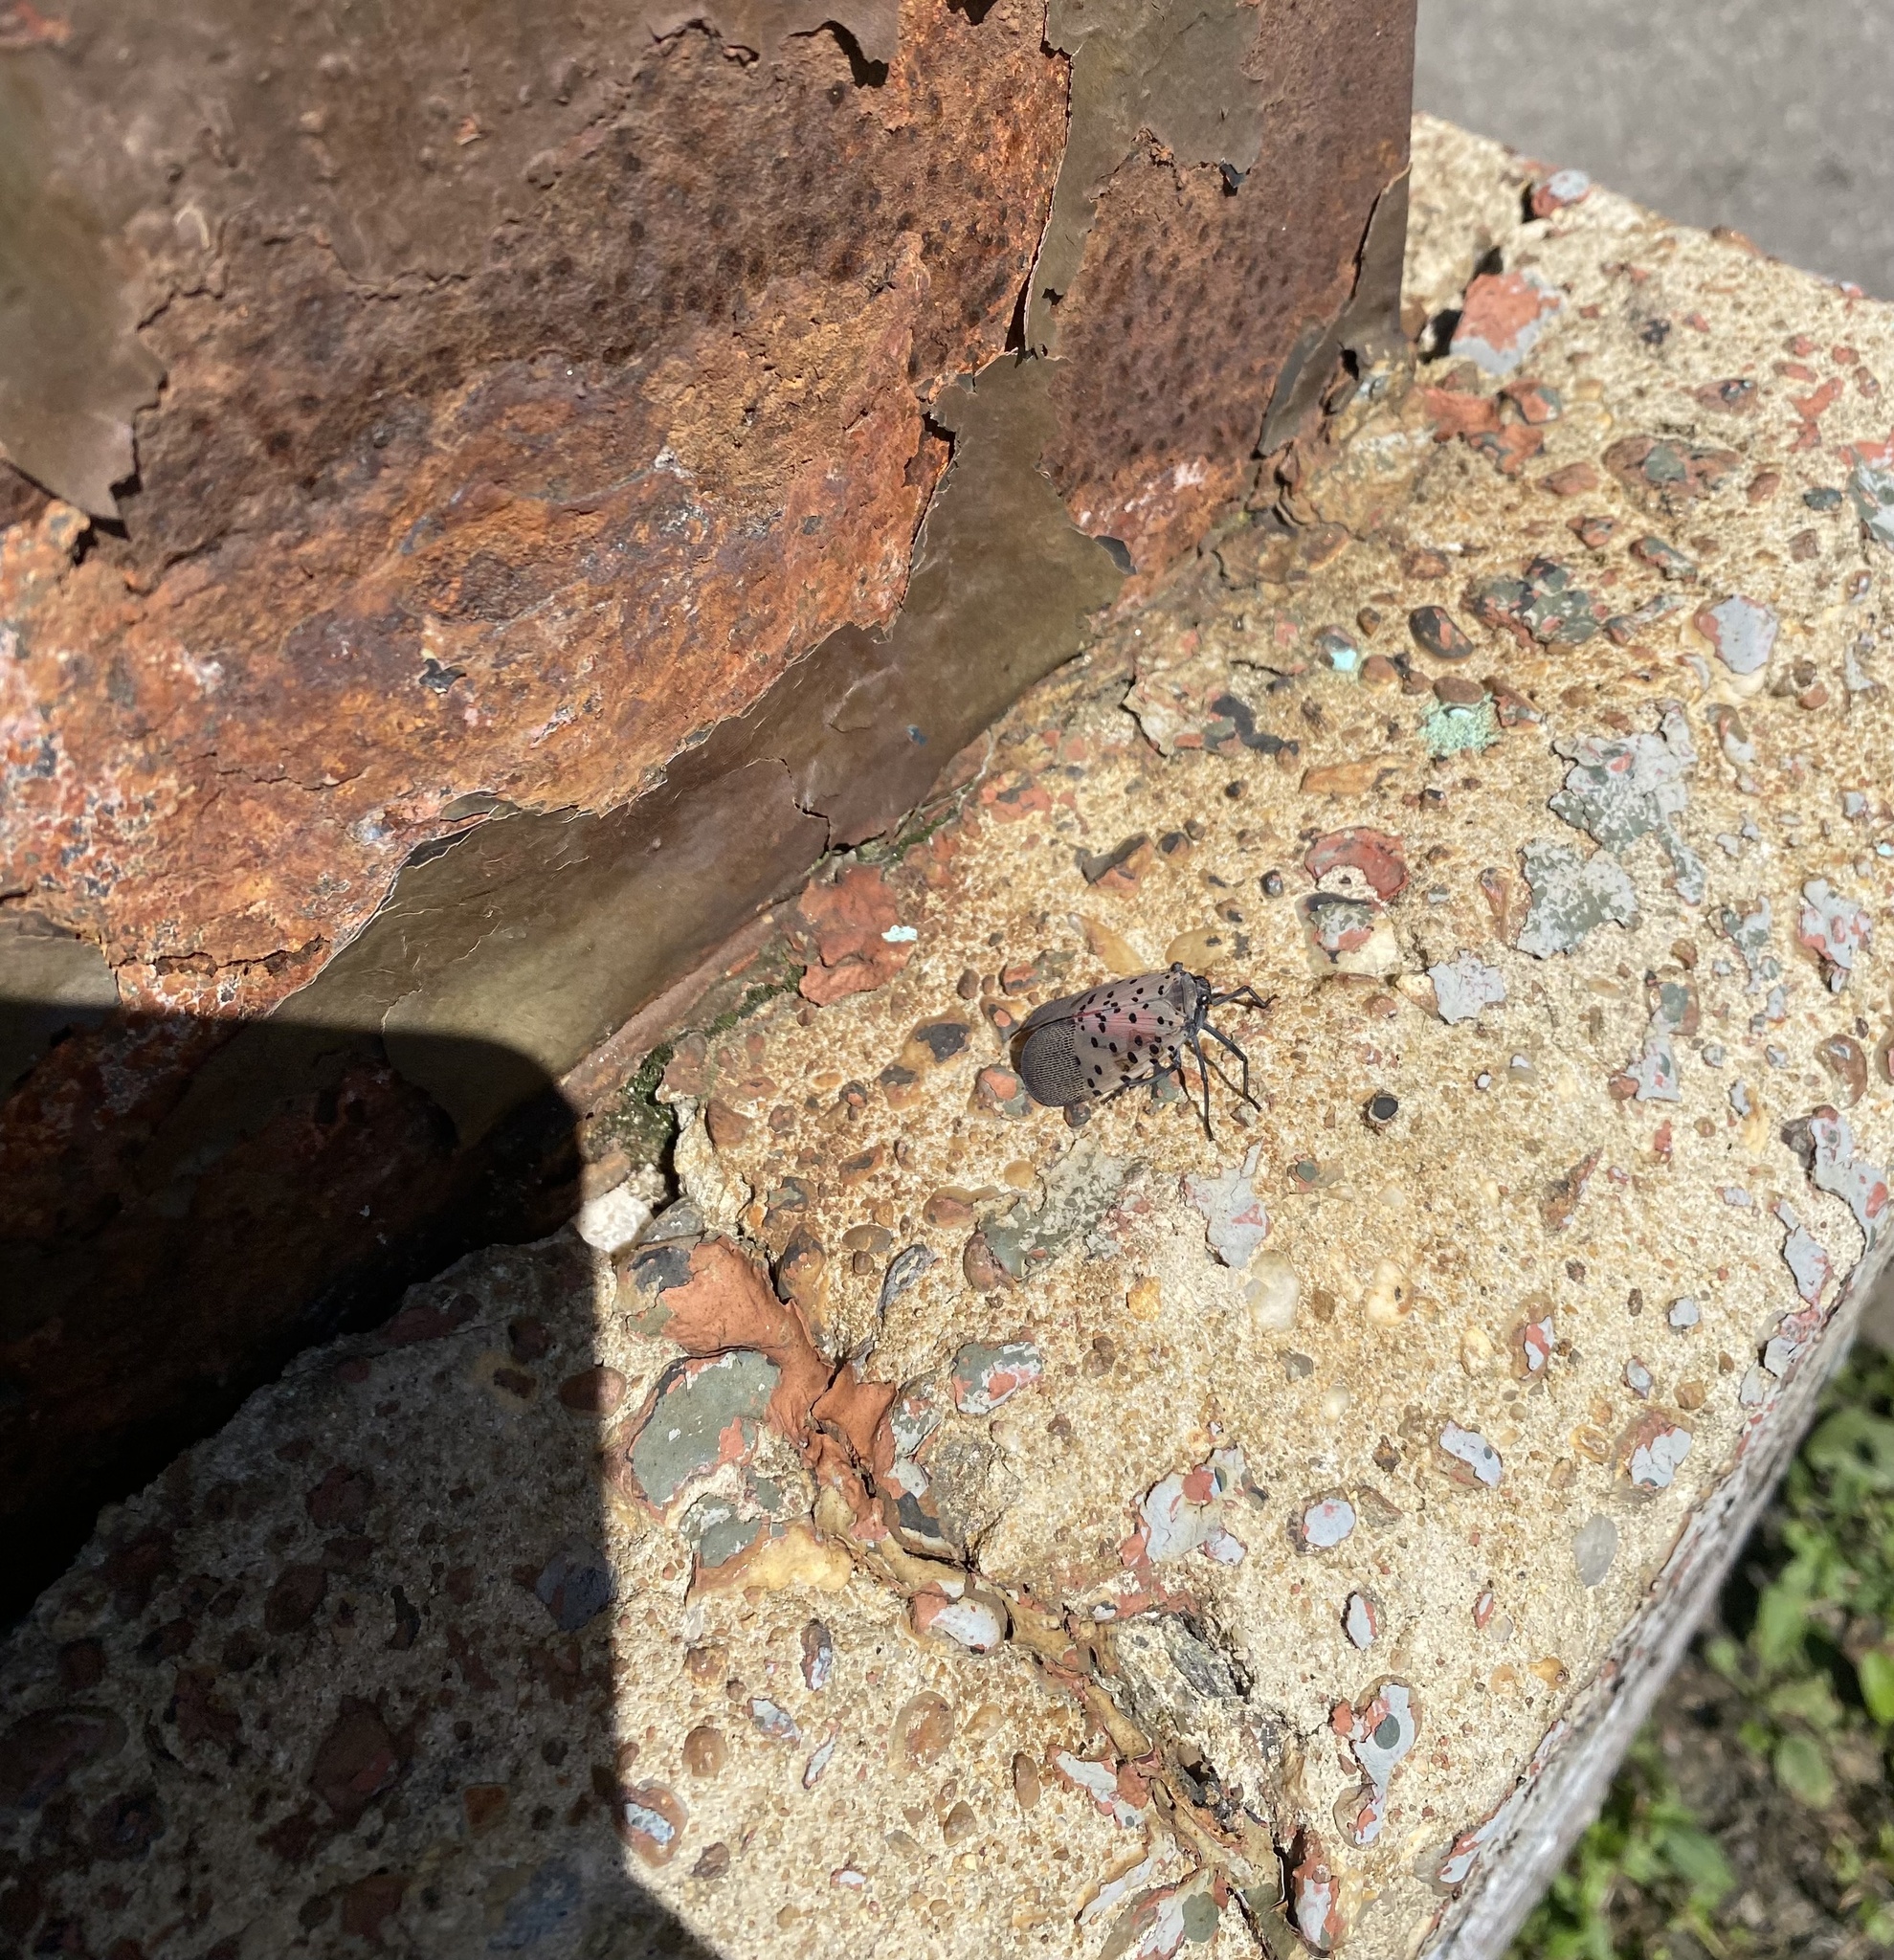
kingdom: Animalia
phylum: Arthropoda
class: Insecta
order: Hemiptera
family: Fulgoridae
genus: Lycorma
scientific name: Lycorma delicatula
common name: Spotted lanternfly
